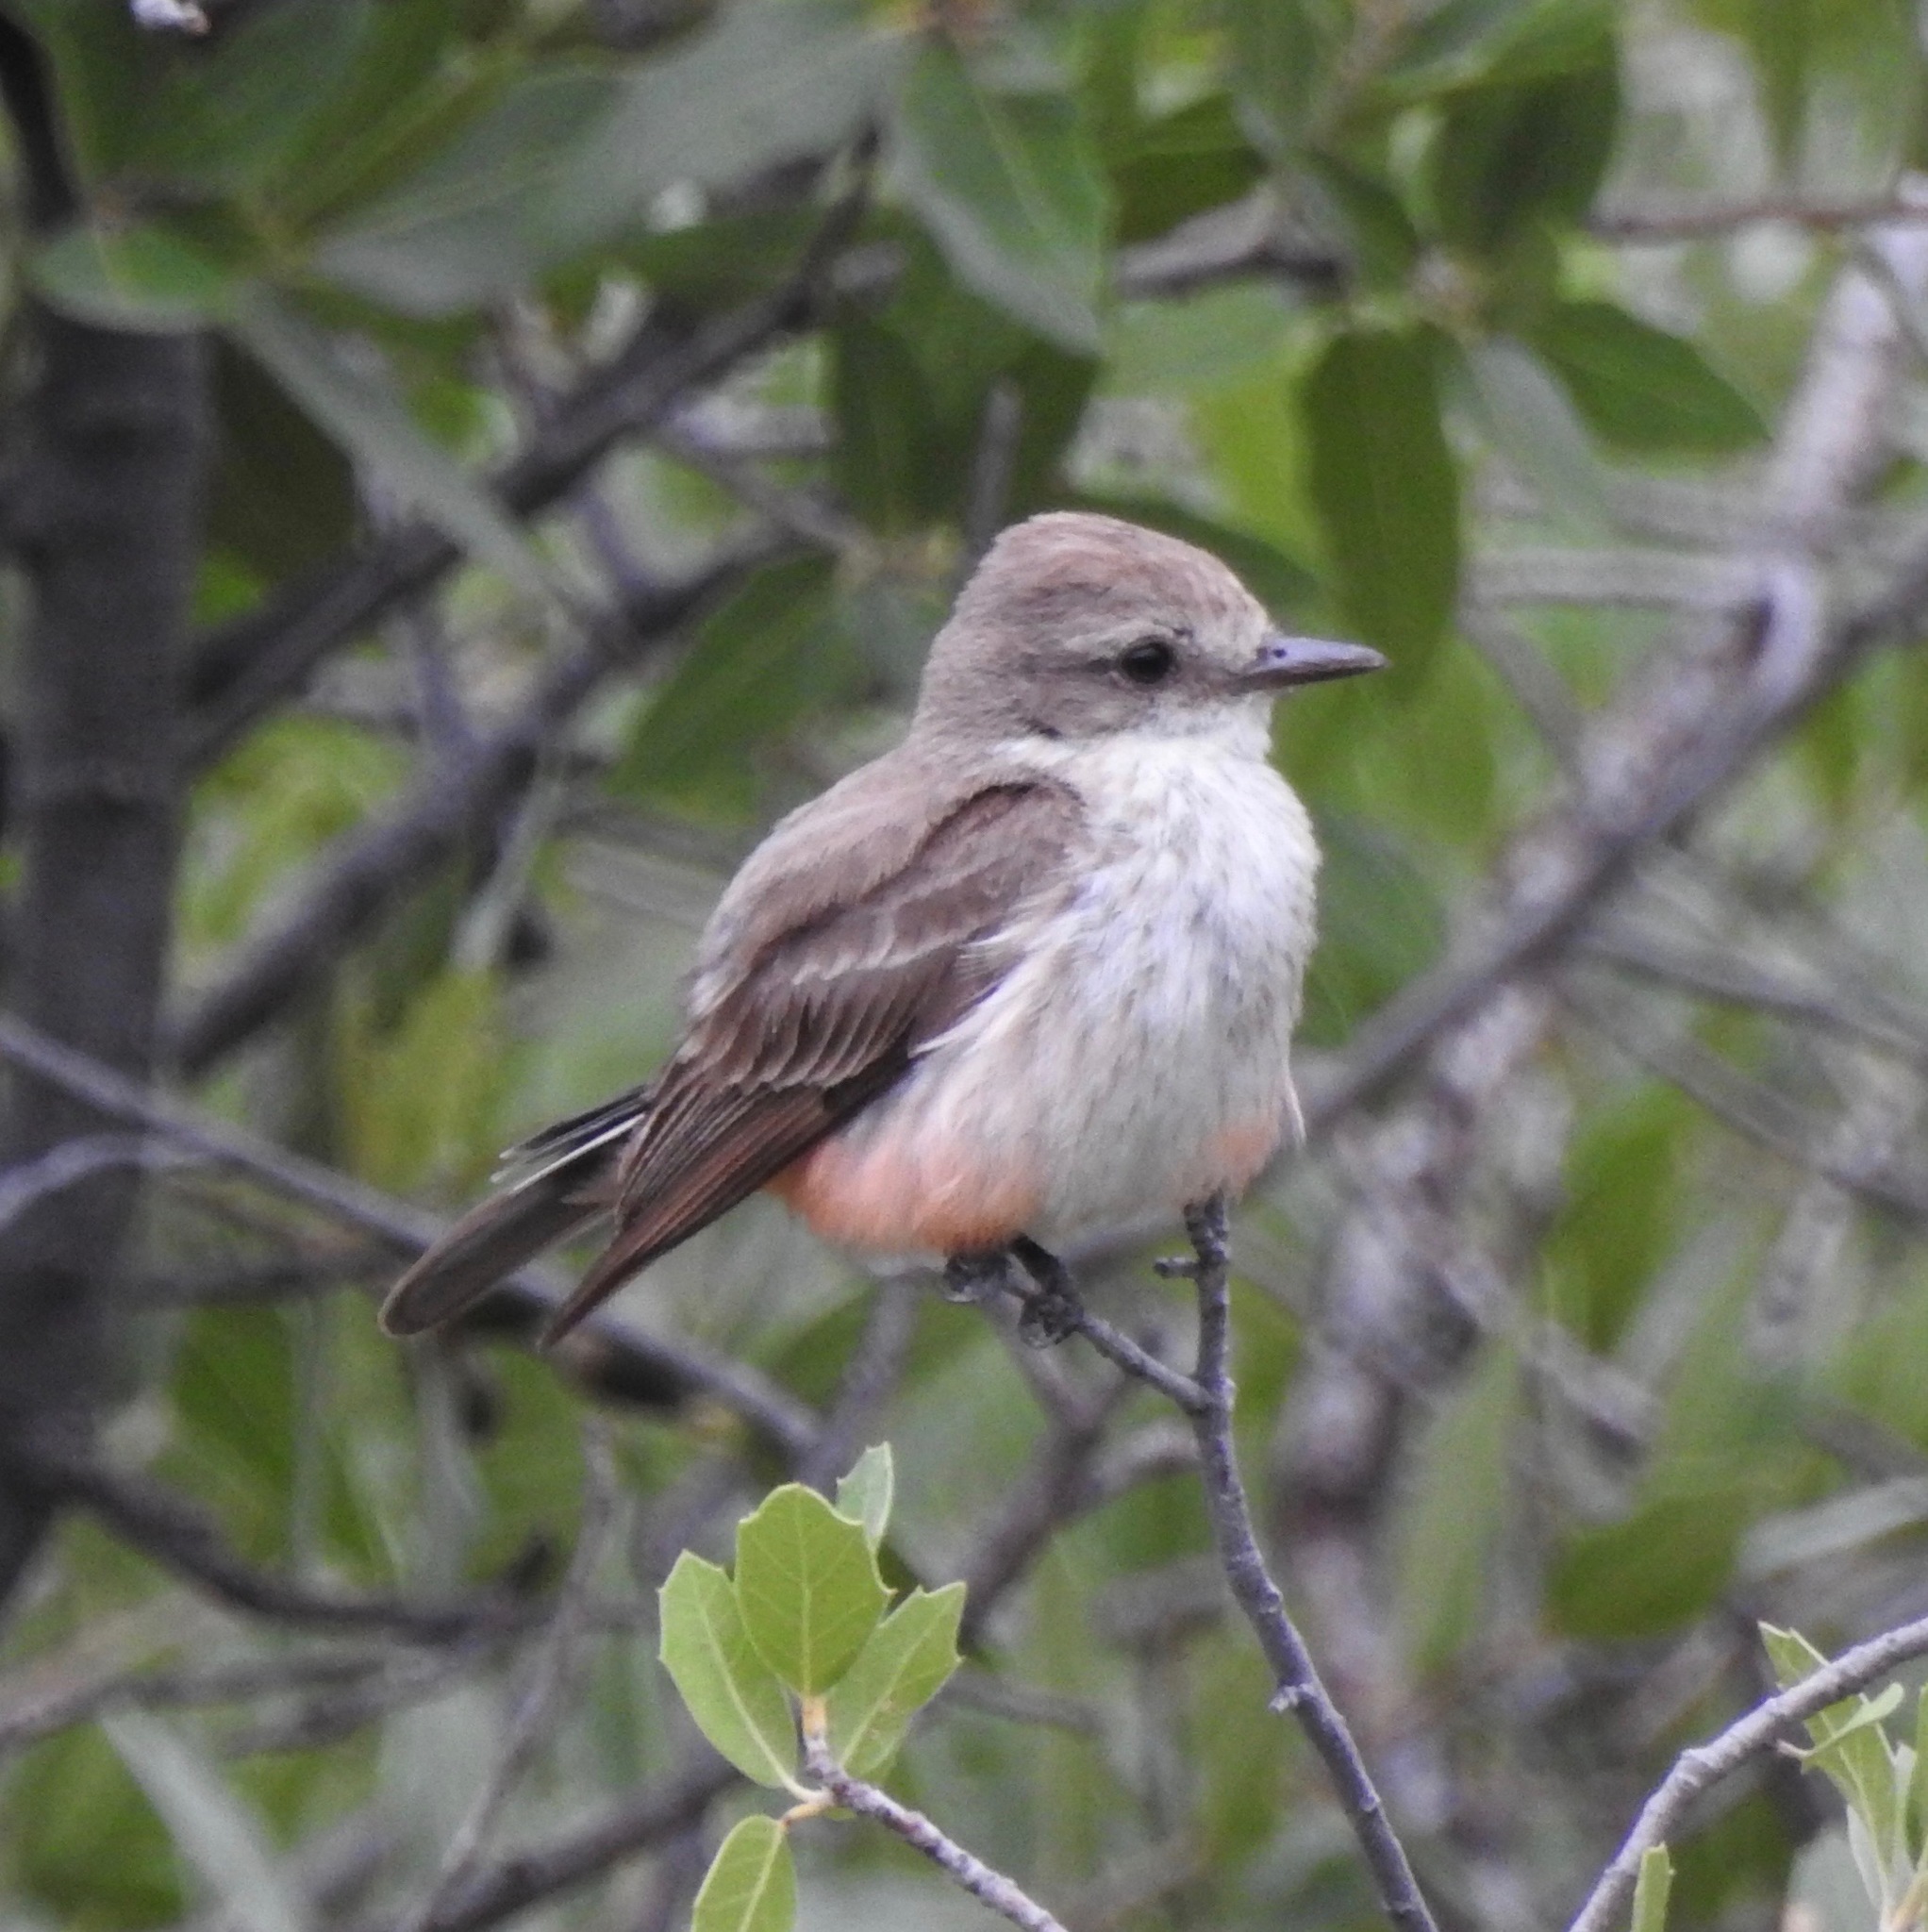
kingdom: Animalia
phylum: Chordata
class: Aves
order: Passeriformes
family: Tyrannidae
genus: Pyrocephalus
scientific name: Pyrocephalus rubinus
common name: Vermilion flycatcher
